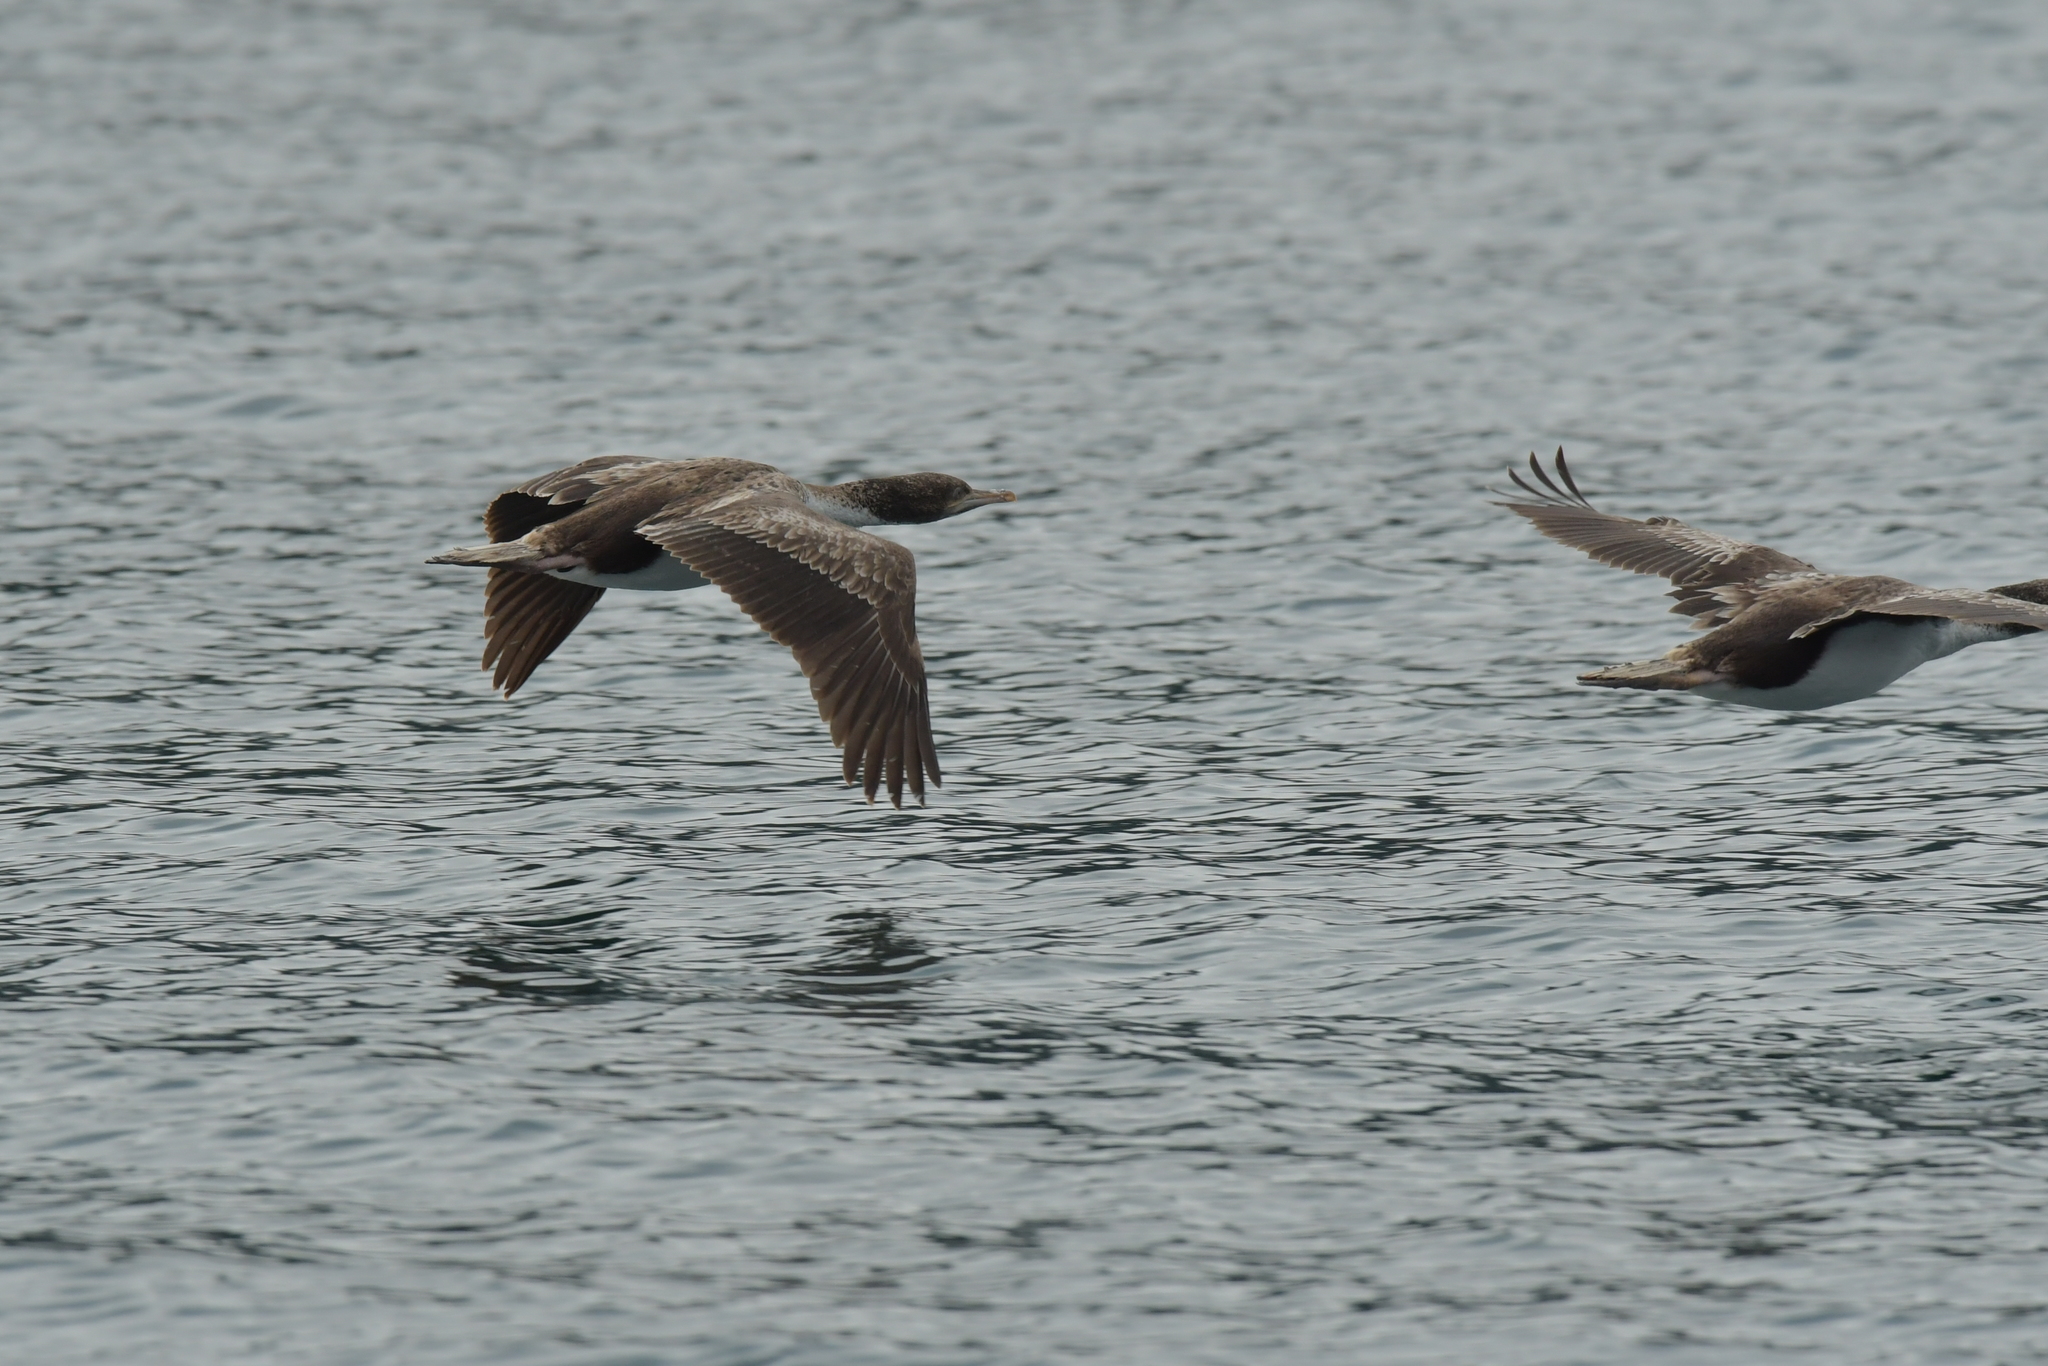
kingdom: Animalia
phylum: Chordata
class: Aves
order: Suliformes
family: Phalacrocoracidae
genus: Leucocarbo
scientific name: Leucocarbo carunculatus
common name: Rough-faced shag
